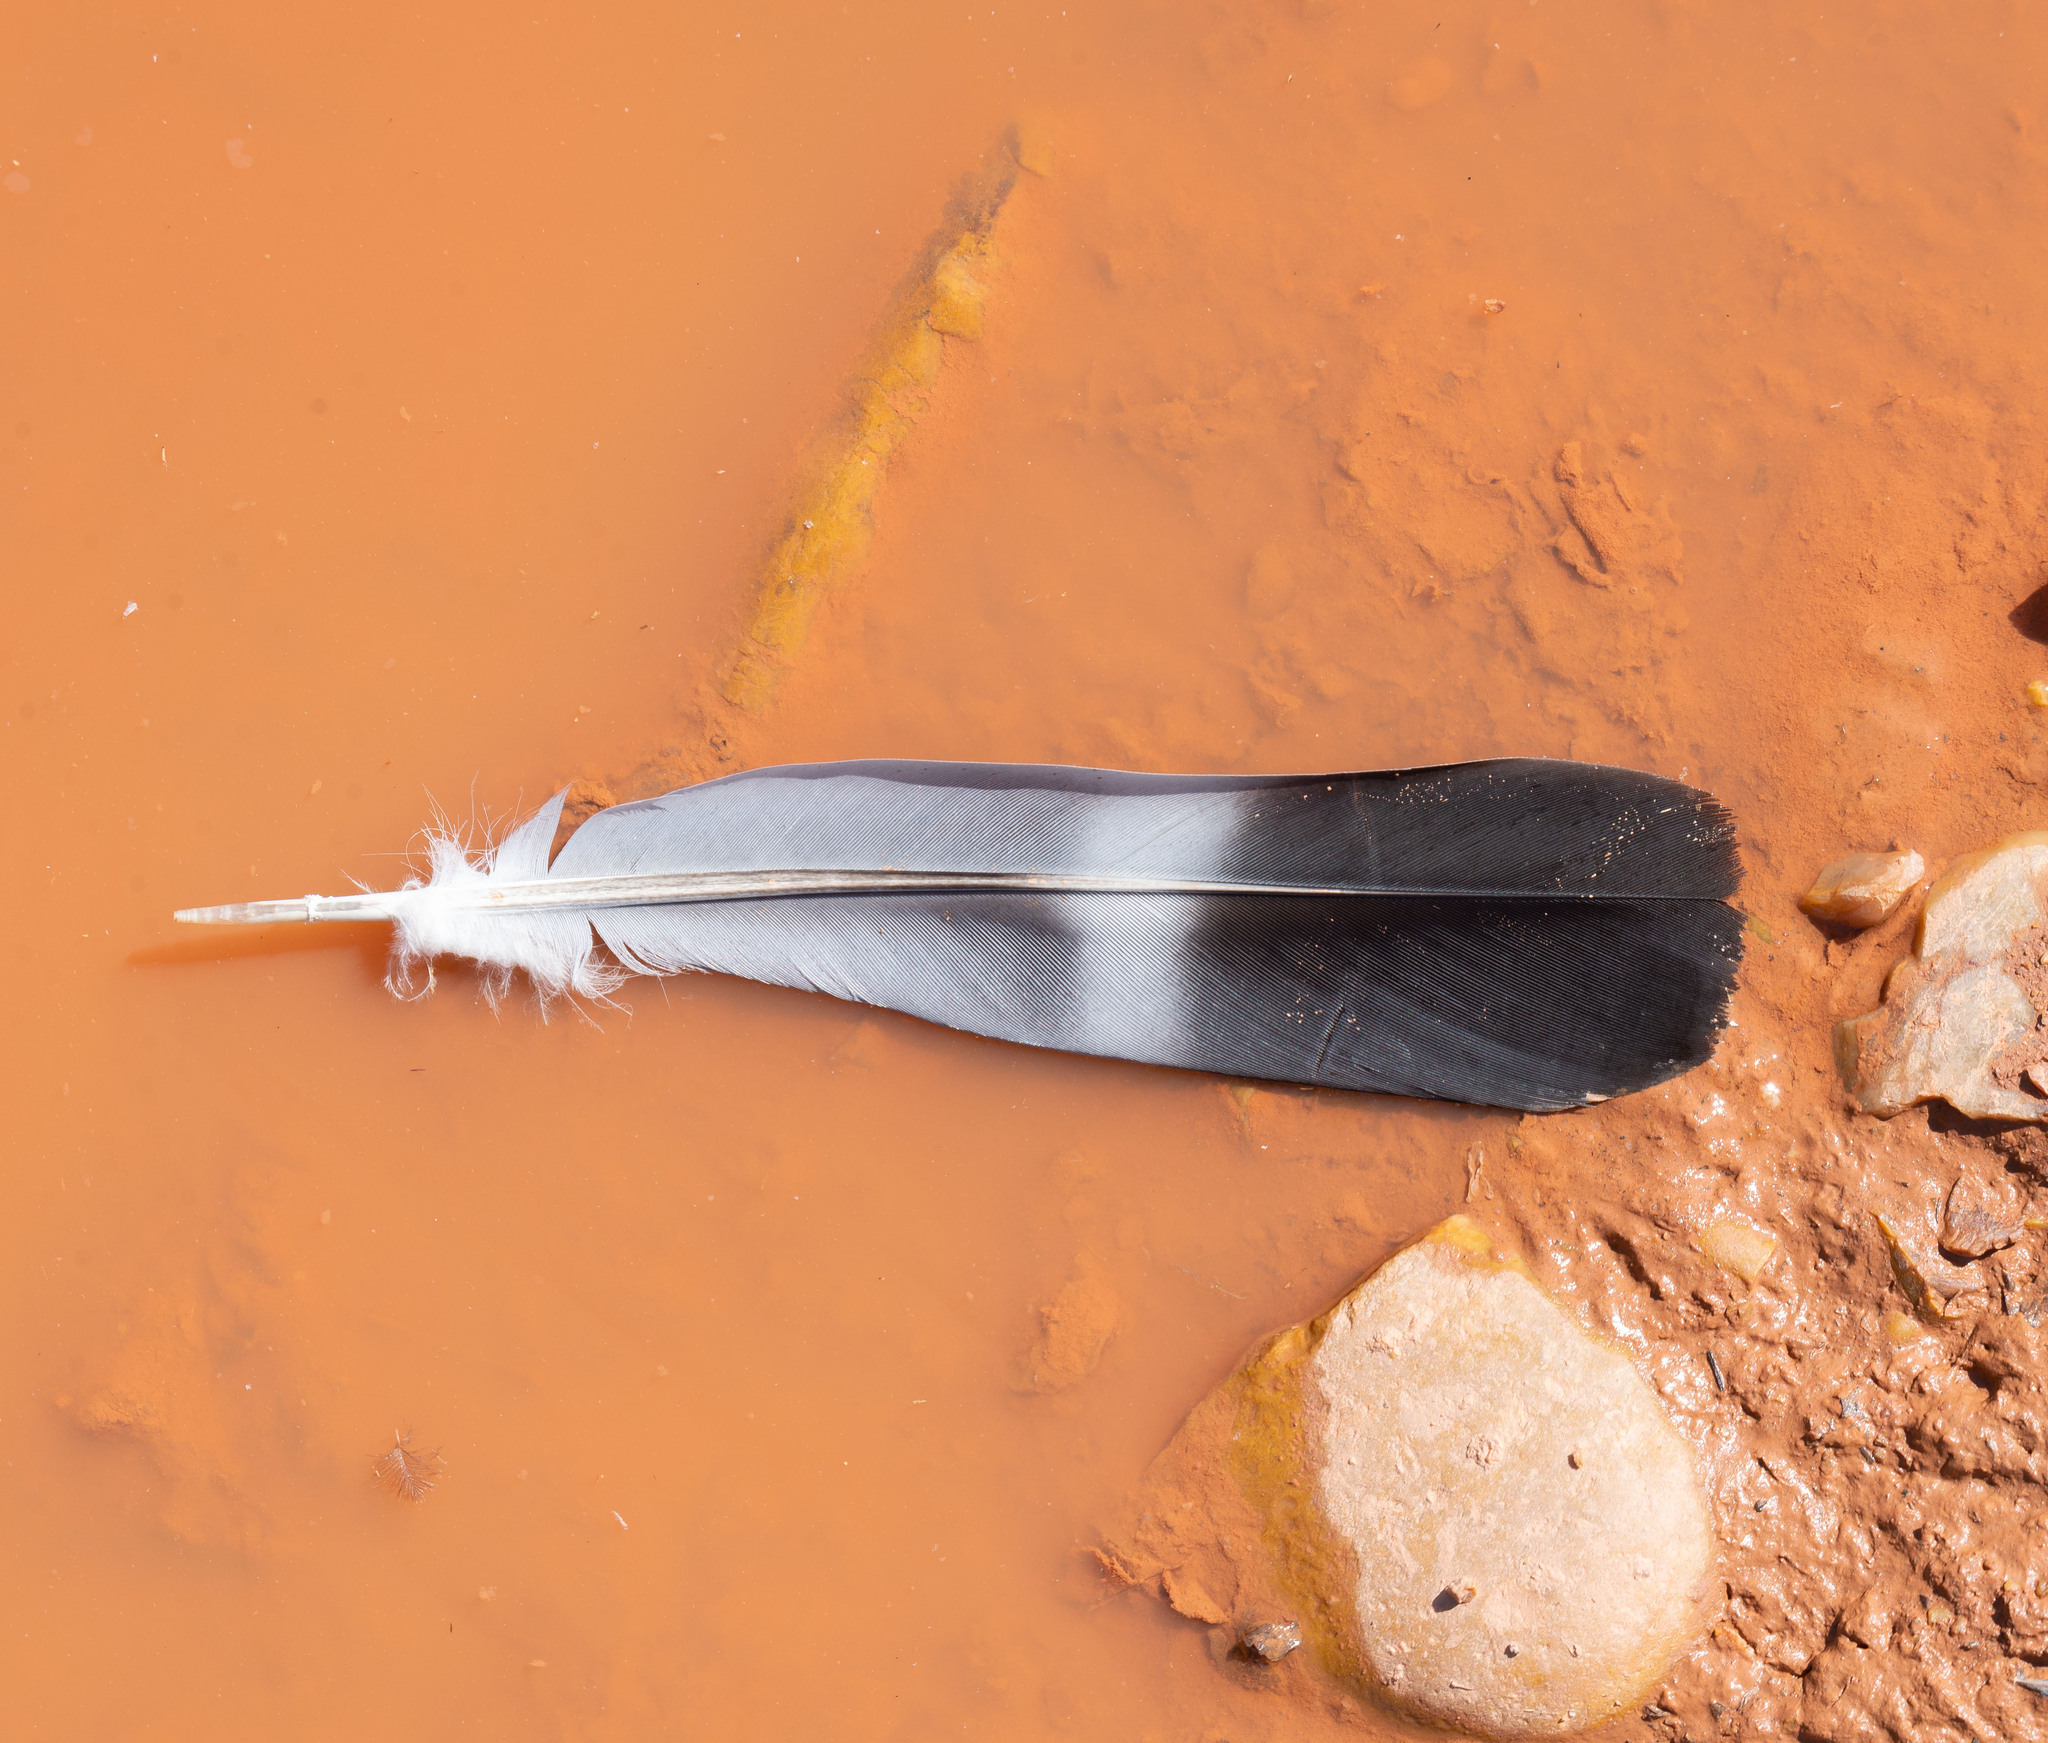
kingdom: Animalia
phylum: Chordata
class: Aves
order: Columbiformes
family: Columbidae
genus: Columba
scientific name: Columba palumbus
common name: Common wood pigeon
